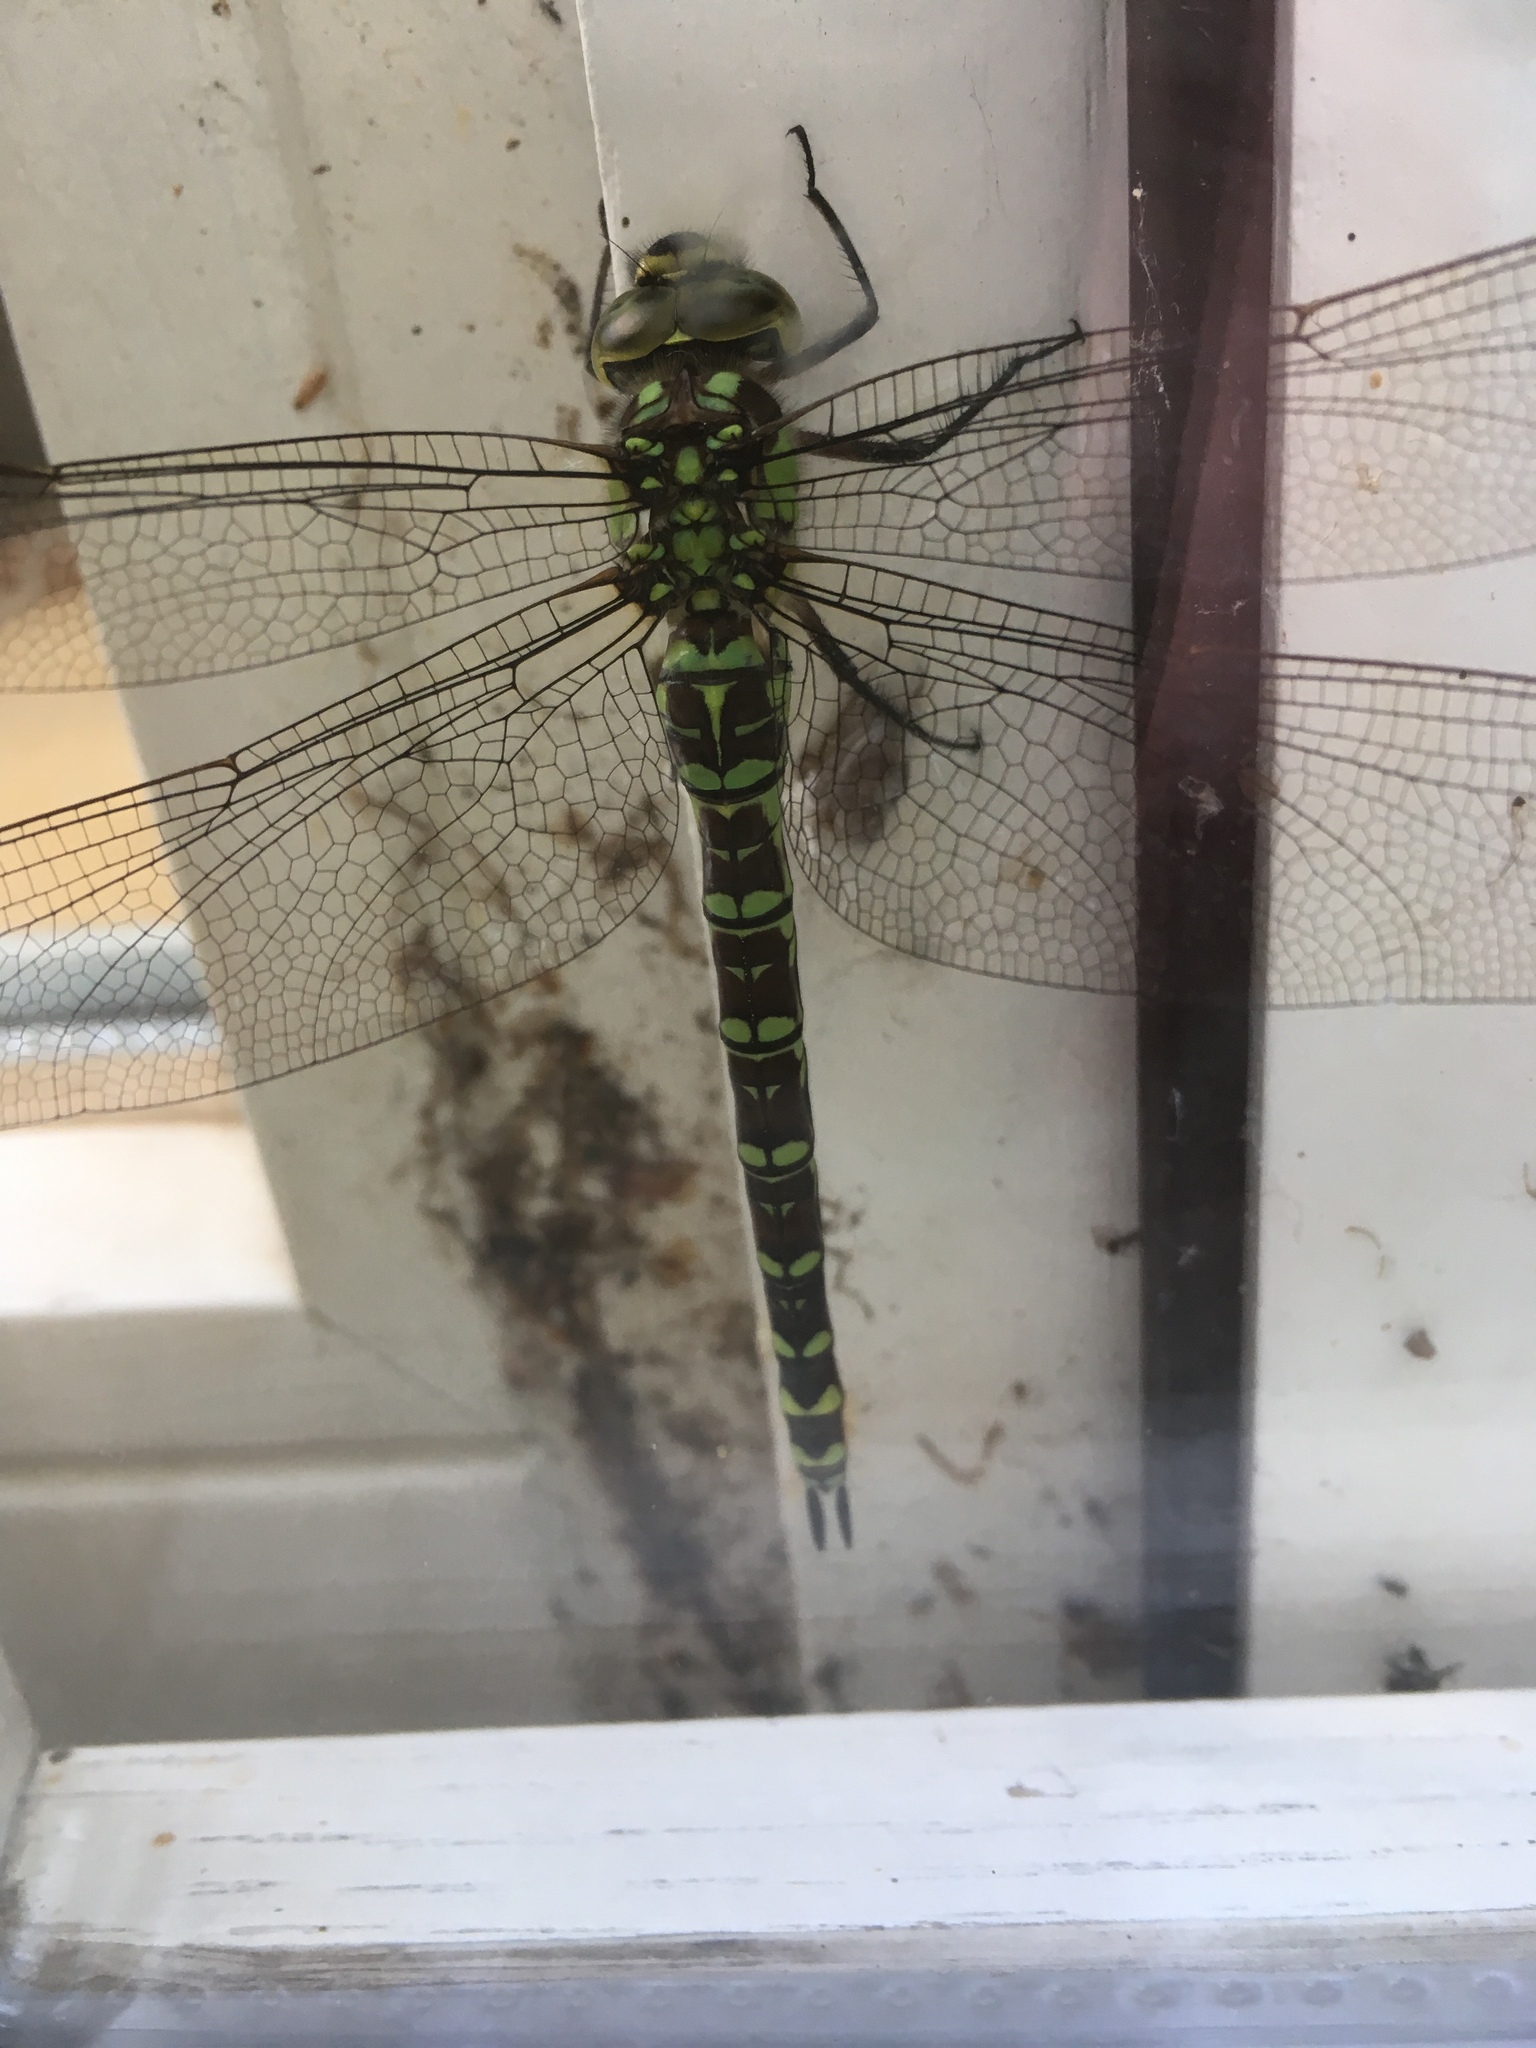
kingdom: Animalia
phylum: Arthropoda
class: Insecta
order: Odonata
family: Aeshnidae
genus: Aeshna
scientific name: Aeshna cyanea
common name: Southern hawker
